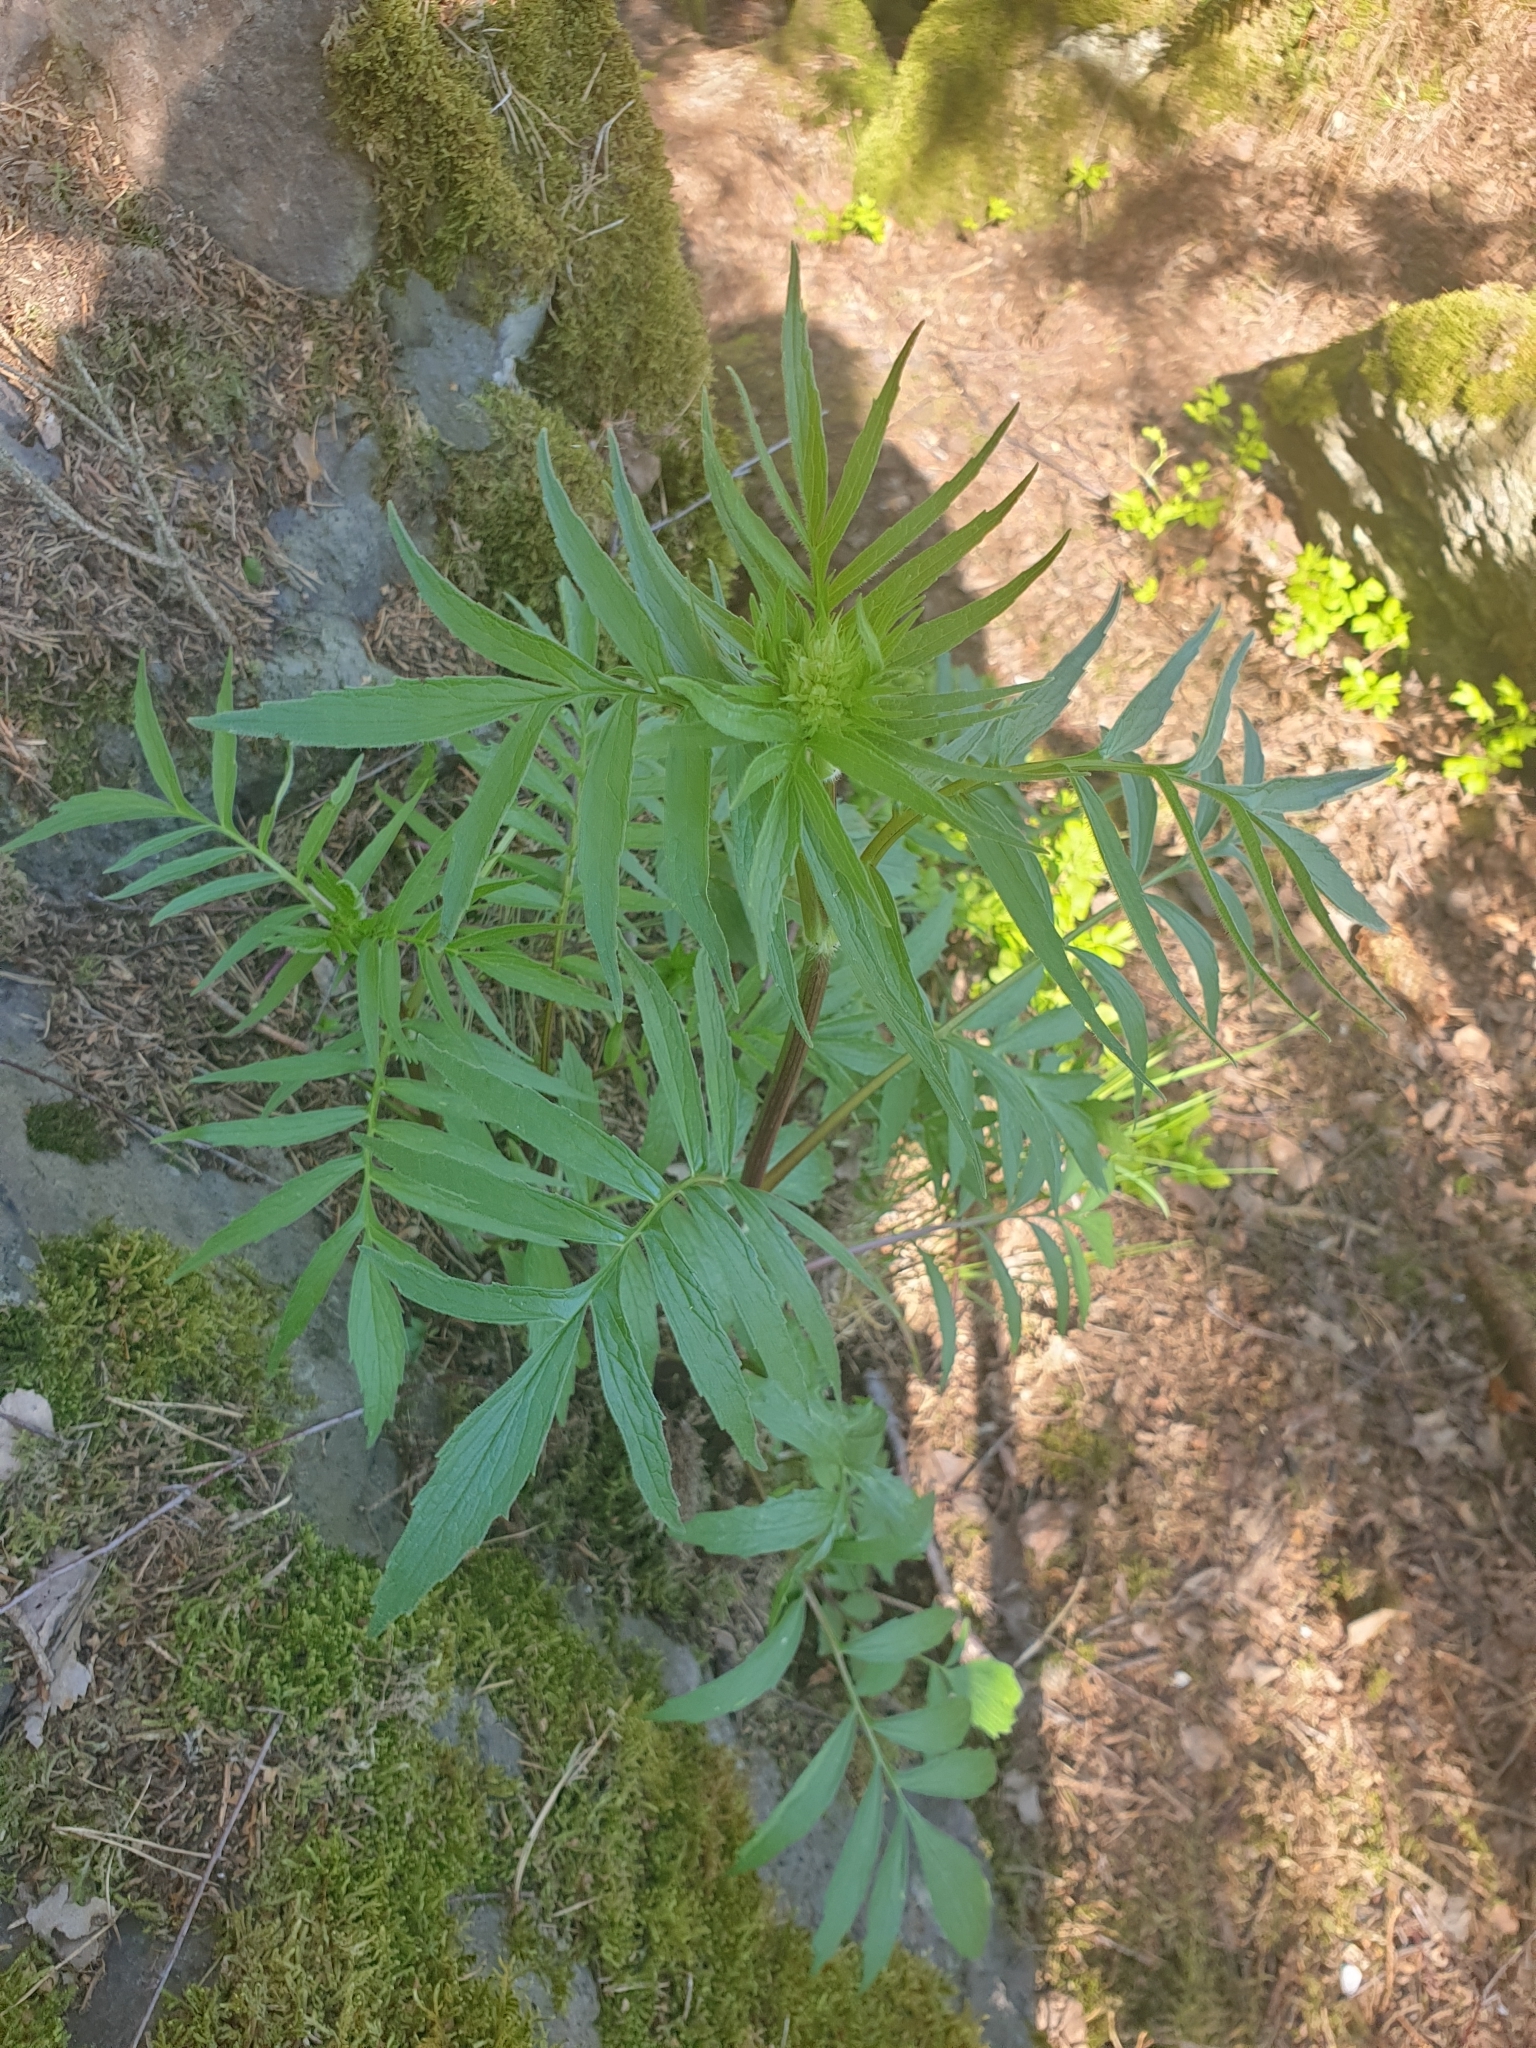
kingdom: Plantae
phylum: Tracheophyta
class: Magnoliopsida
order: Asterales
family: Asteraceae
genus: Centaurea
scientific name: Centaurea scabiosa
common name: Greater knapweed
